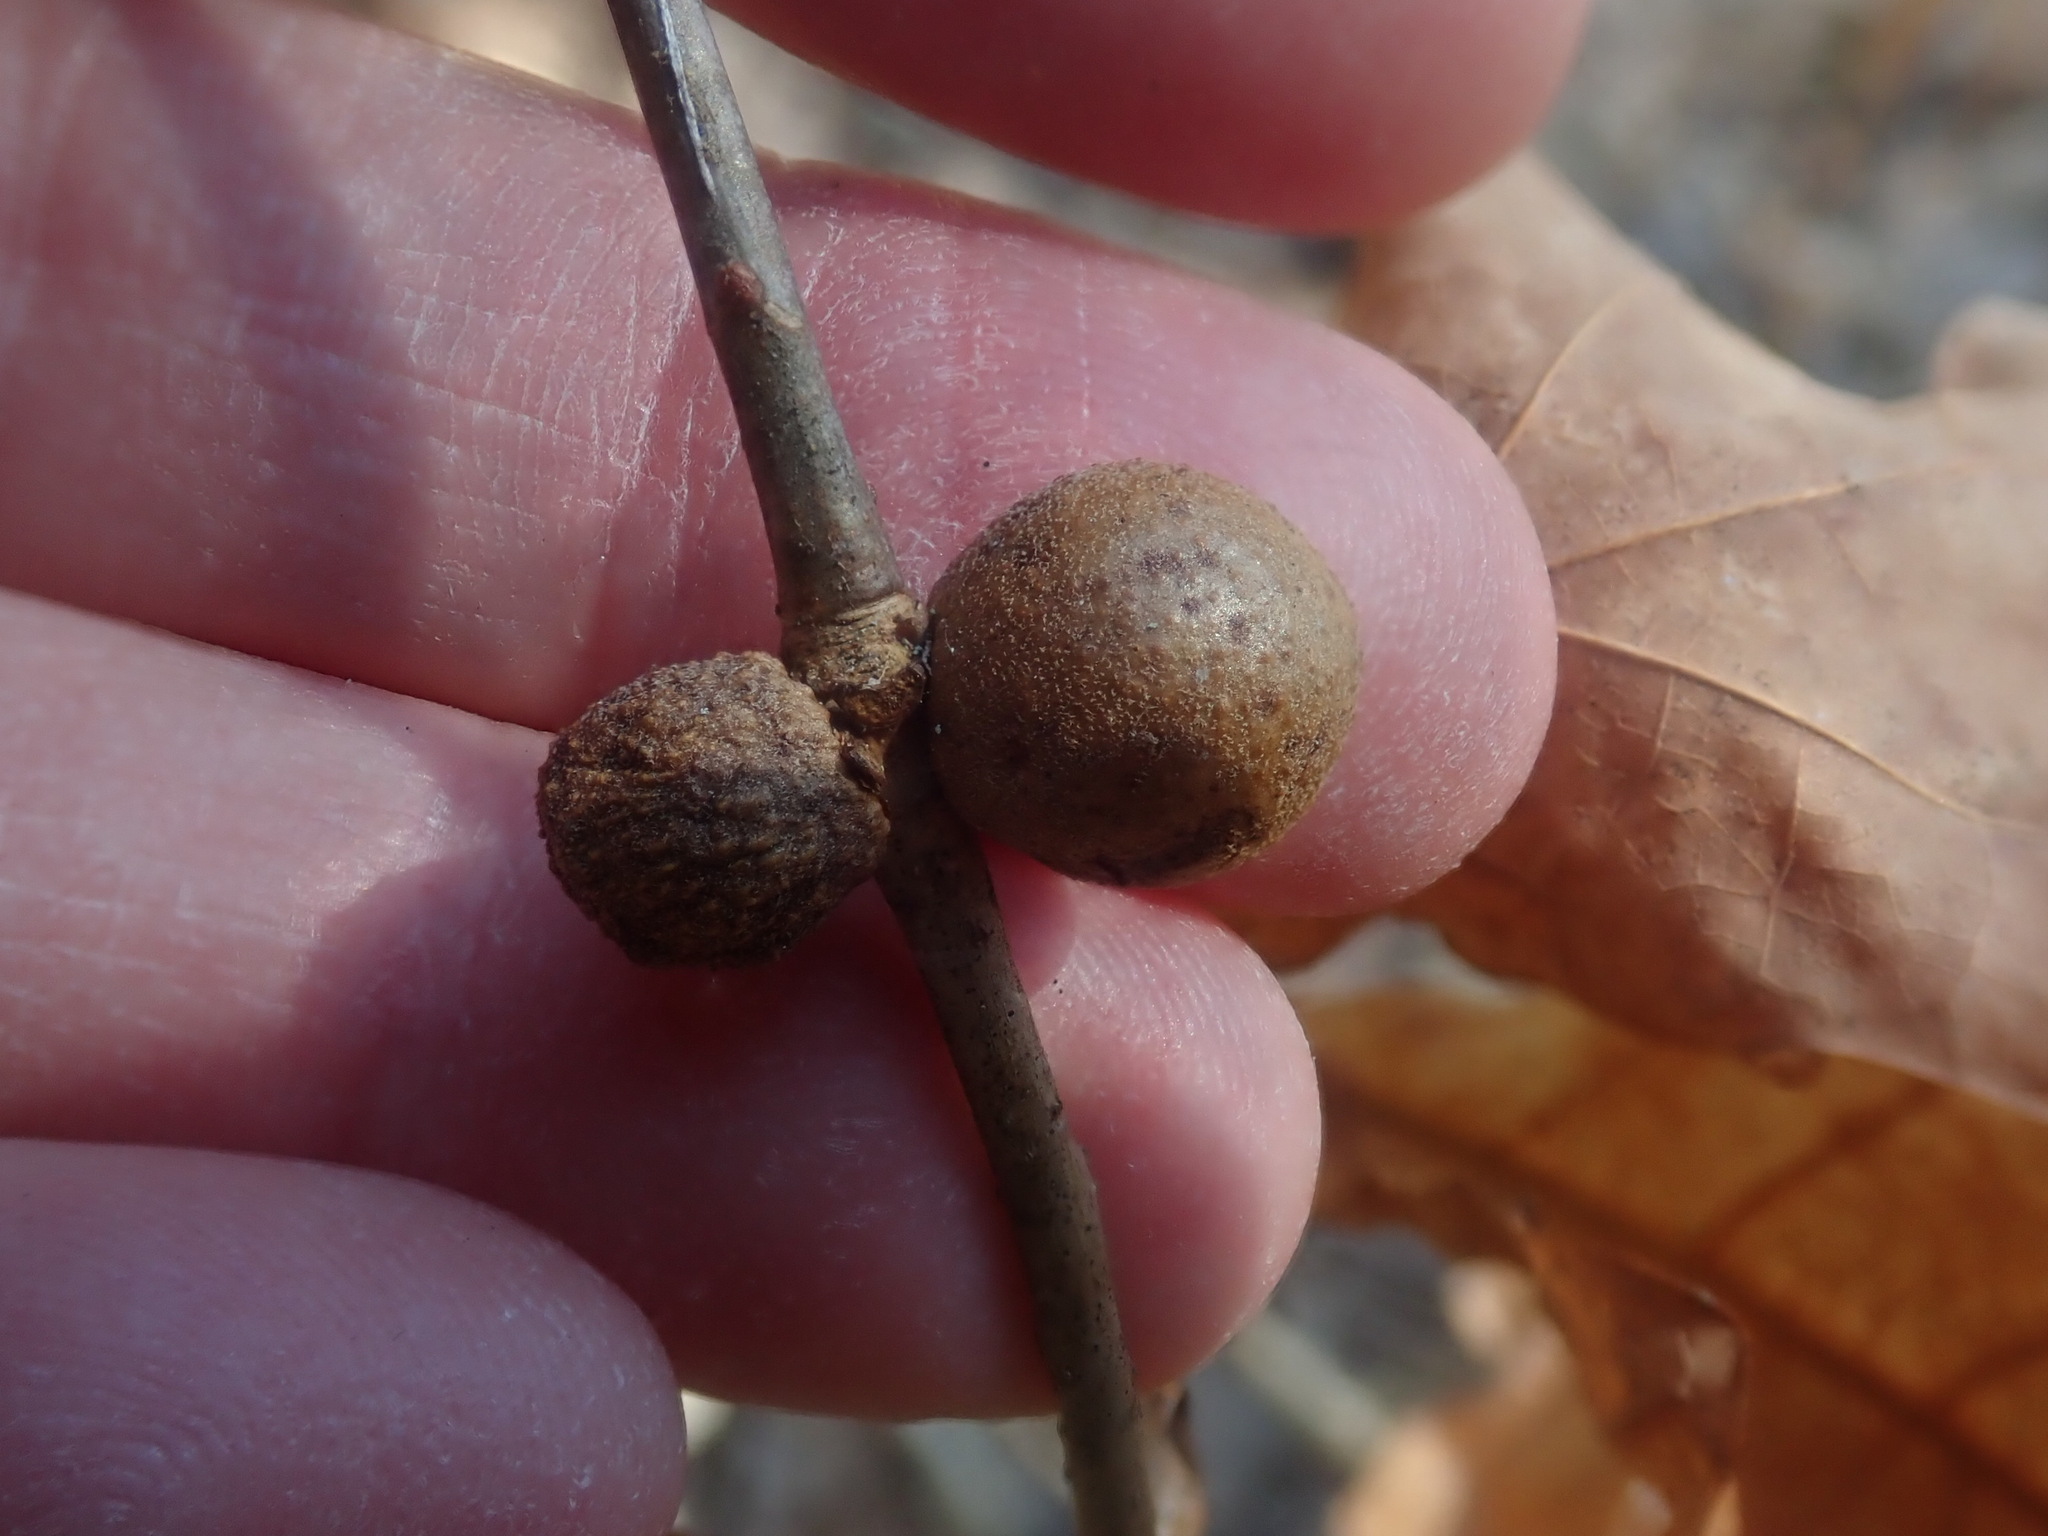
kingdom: Animalia
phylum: Arthropoda
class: Insecta
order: Hymenoptera
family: Cynipidae
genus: Disholcaspis
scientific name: Disholcaspis quercusglobulus
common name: Round bullet gall wasp
